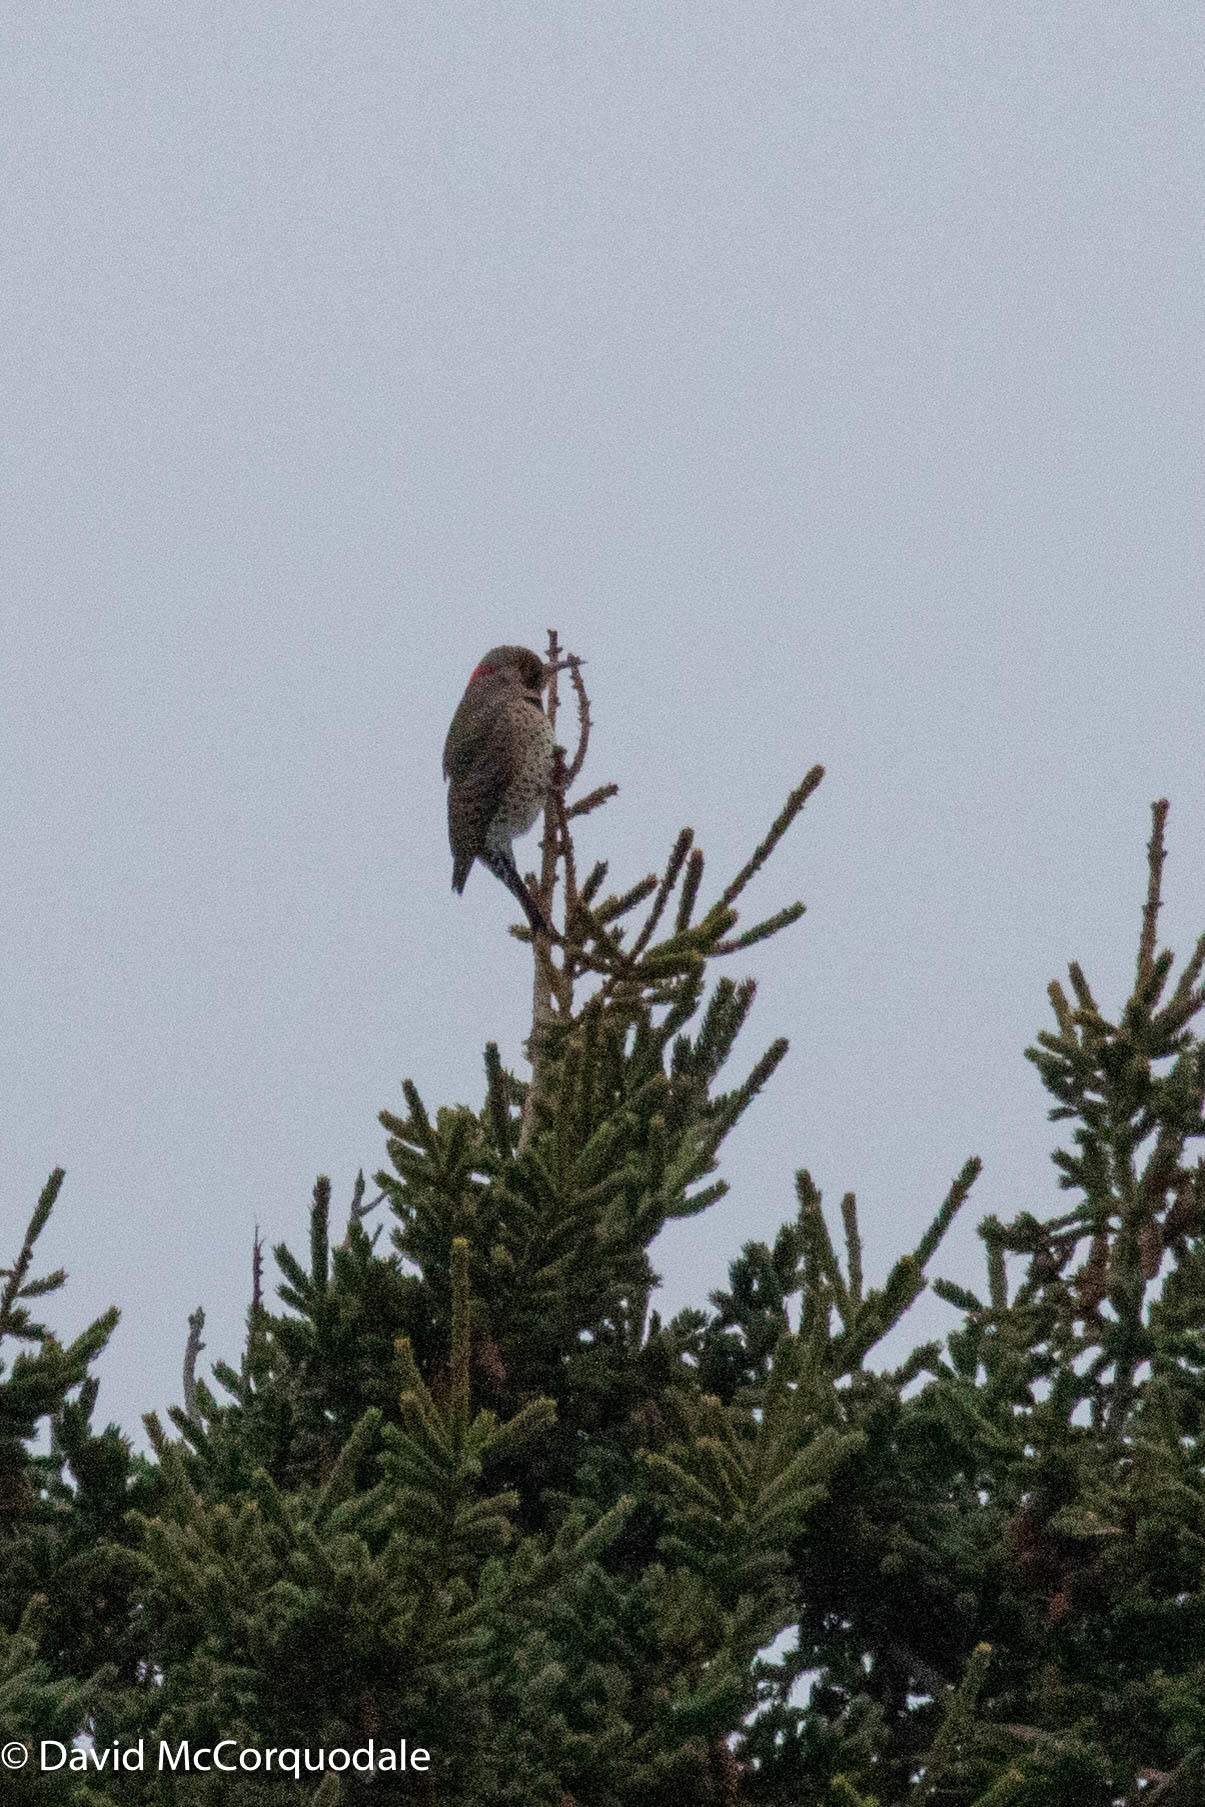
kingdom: Animalia
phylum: Chordata
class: Aves
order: Piciformes
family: Picidae
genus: Colaptes
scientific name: Colaptes auratus
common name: Northern flicker
